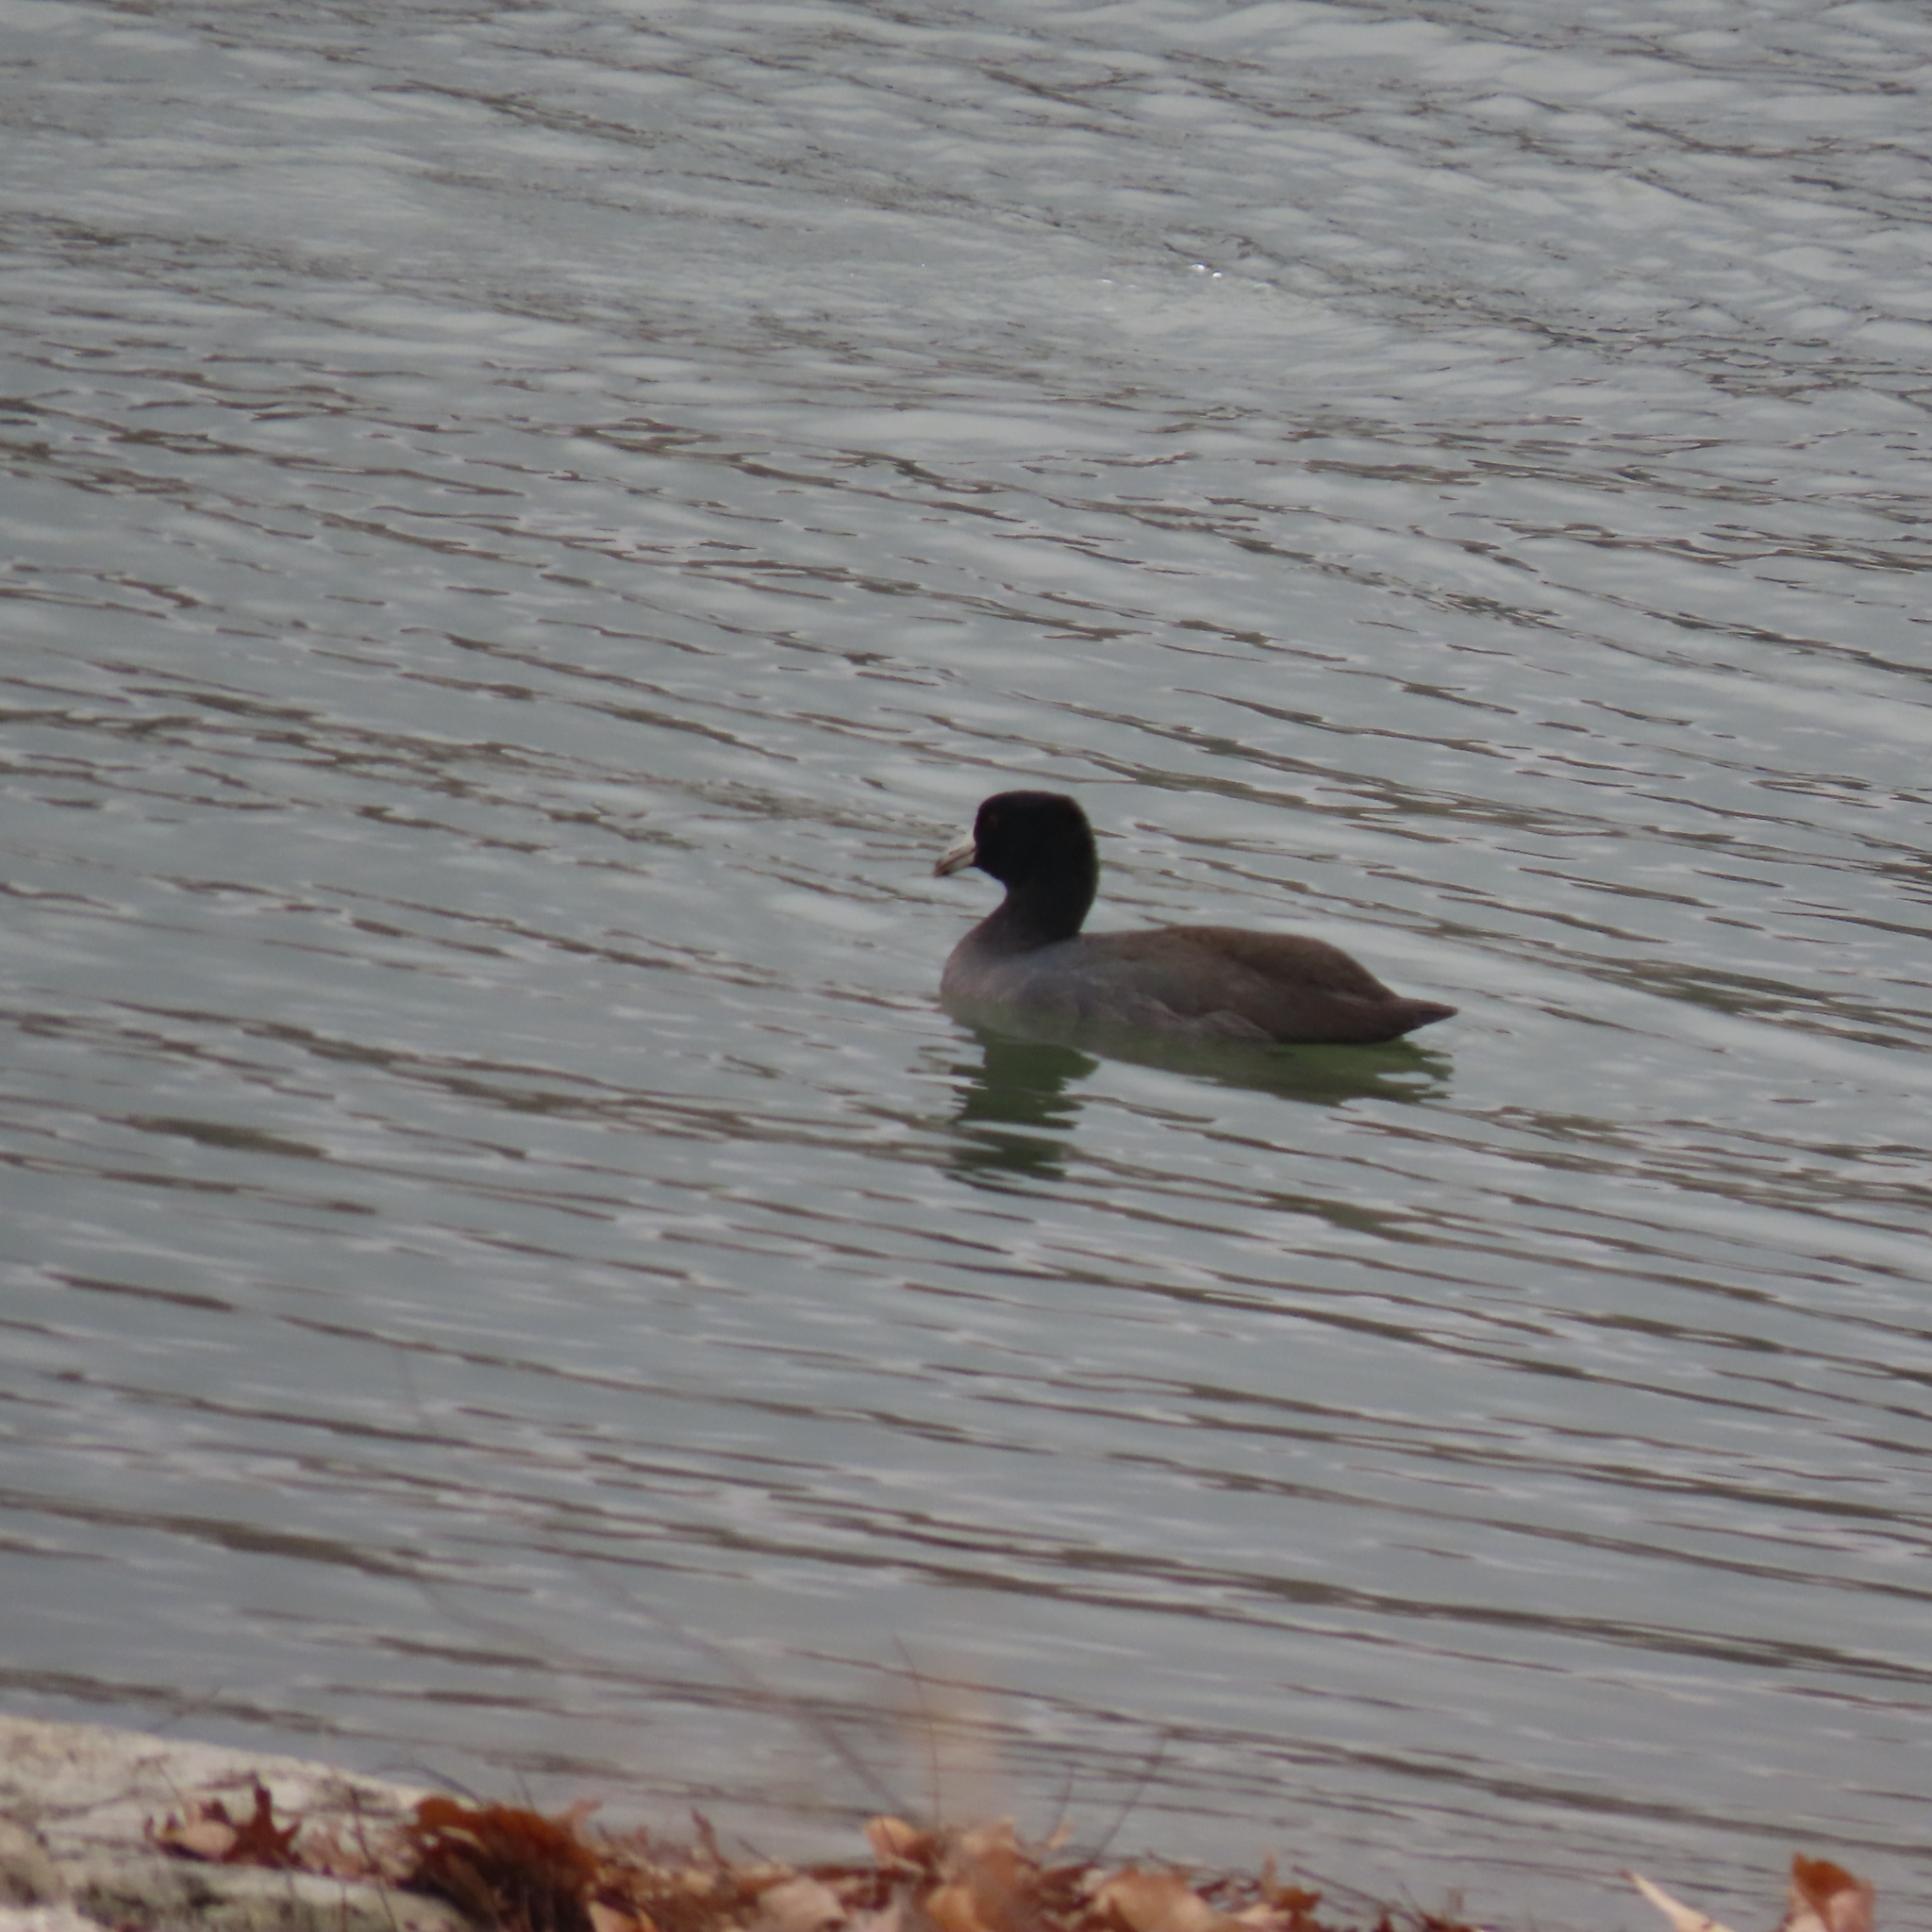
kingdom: Animalia
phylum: Chordata
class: Aves
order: Gruiformes
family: Rallidae
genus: Fulica
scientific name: Fulica americana
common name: American coot
